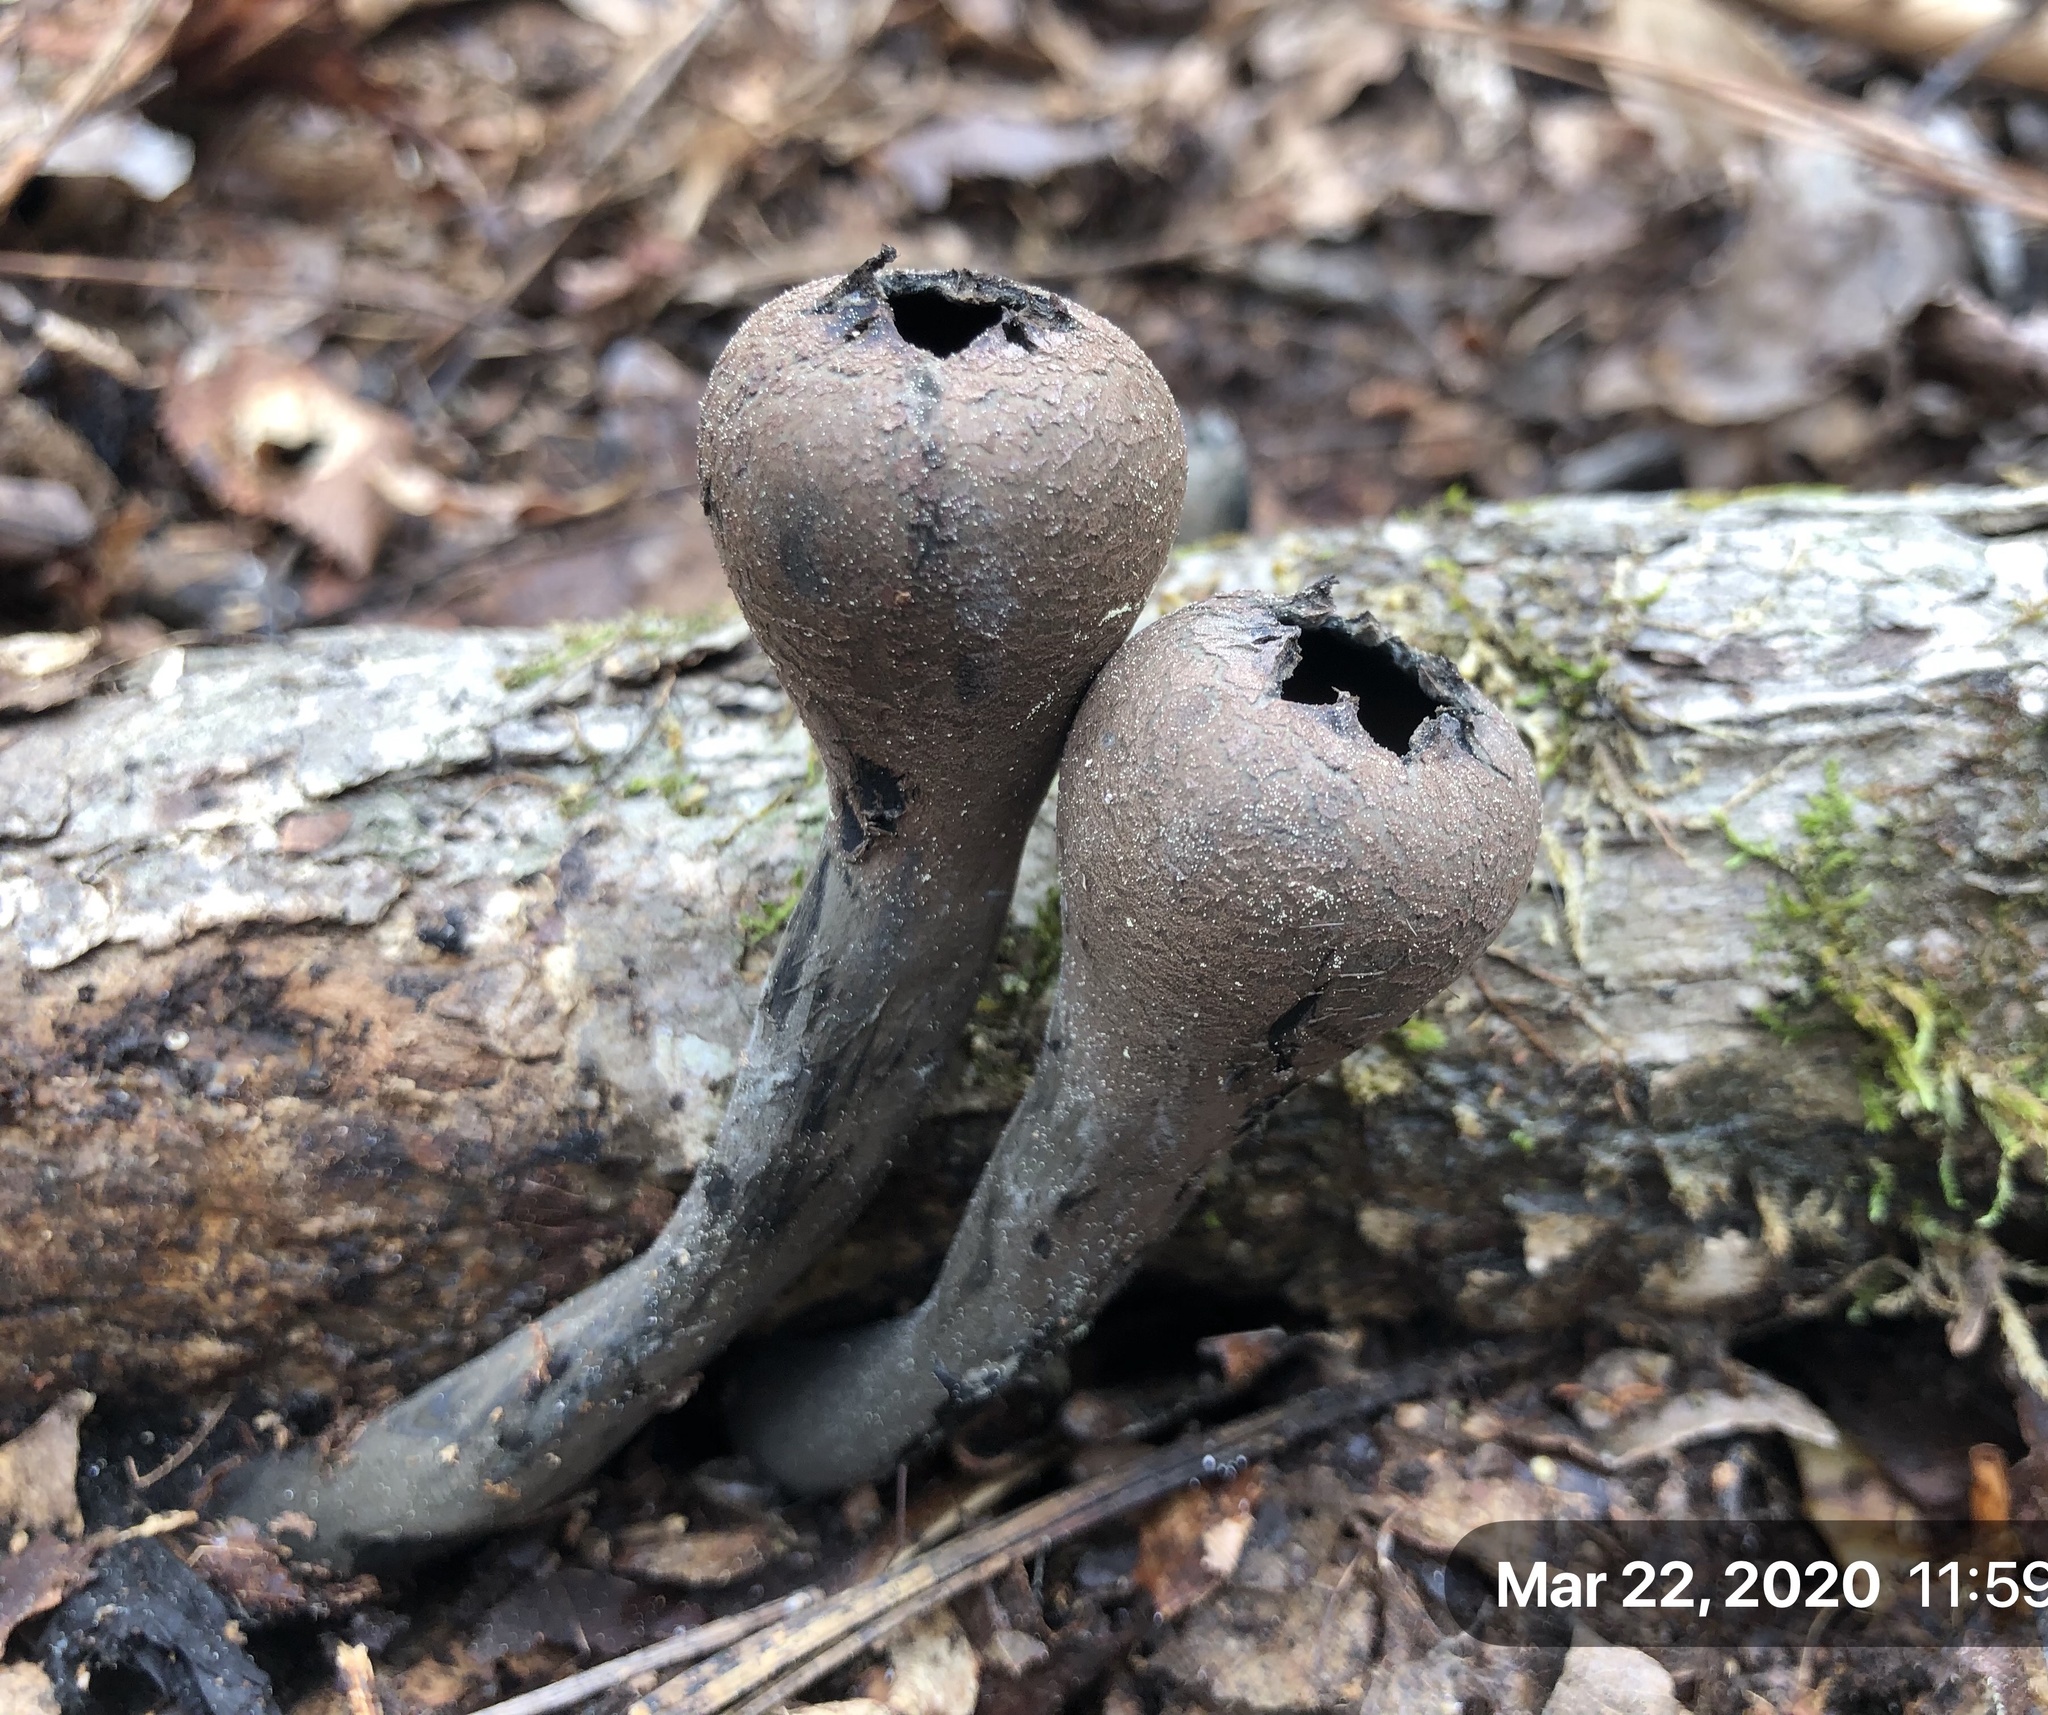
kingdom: Fungi
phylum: Ascomycota
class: Pezizomycetes
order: Pezizales
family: Sarcosomataceae
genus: Urnula
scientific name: Urnula craterium
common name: Devil's urn
